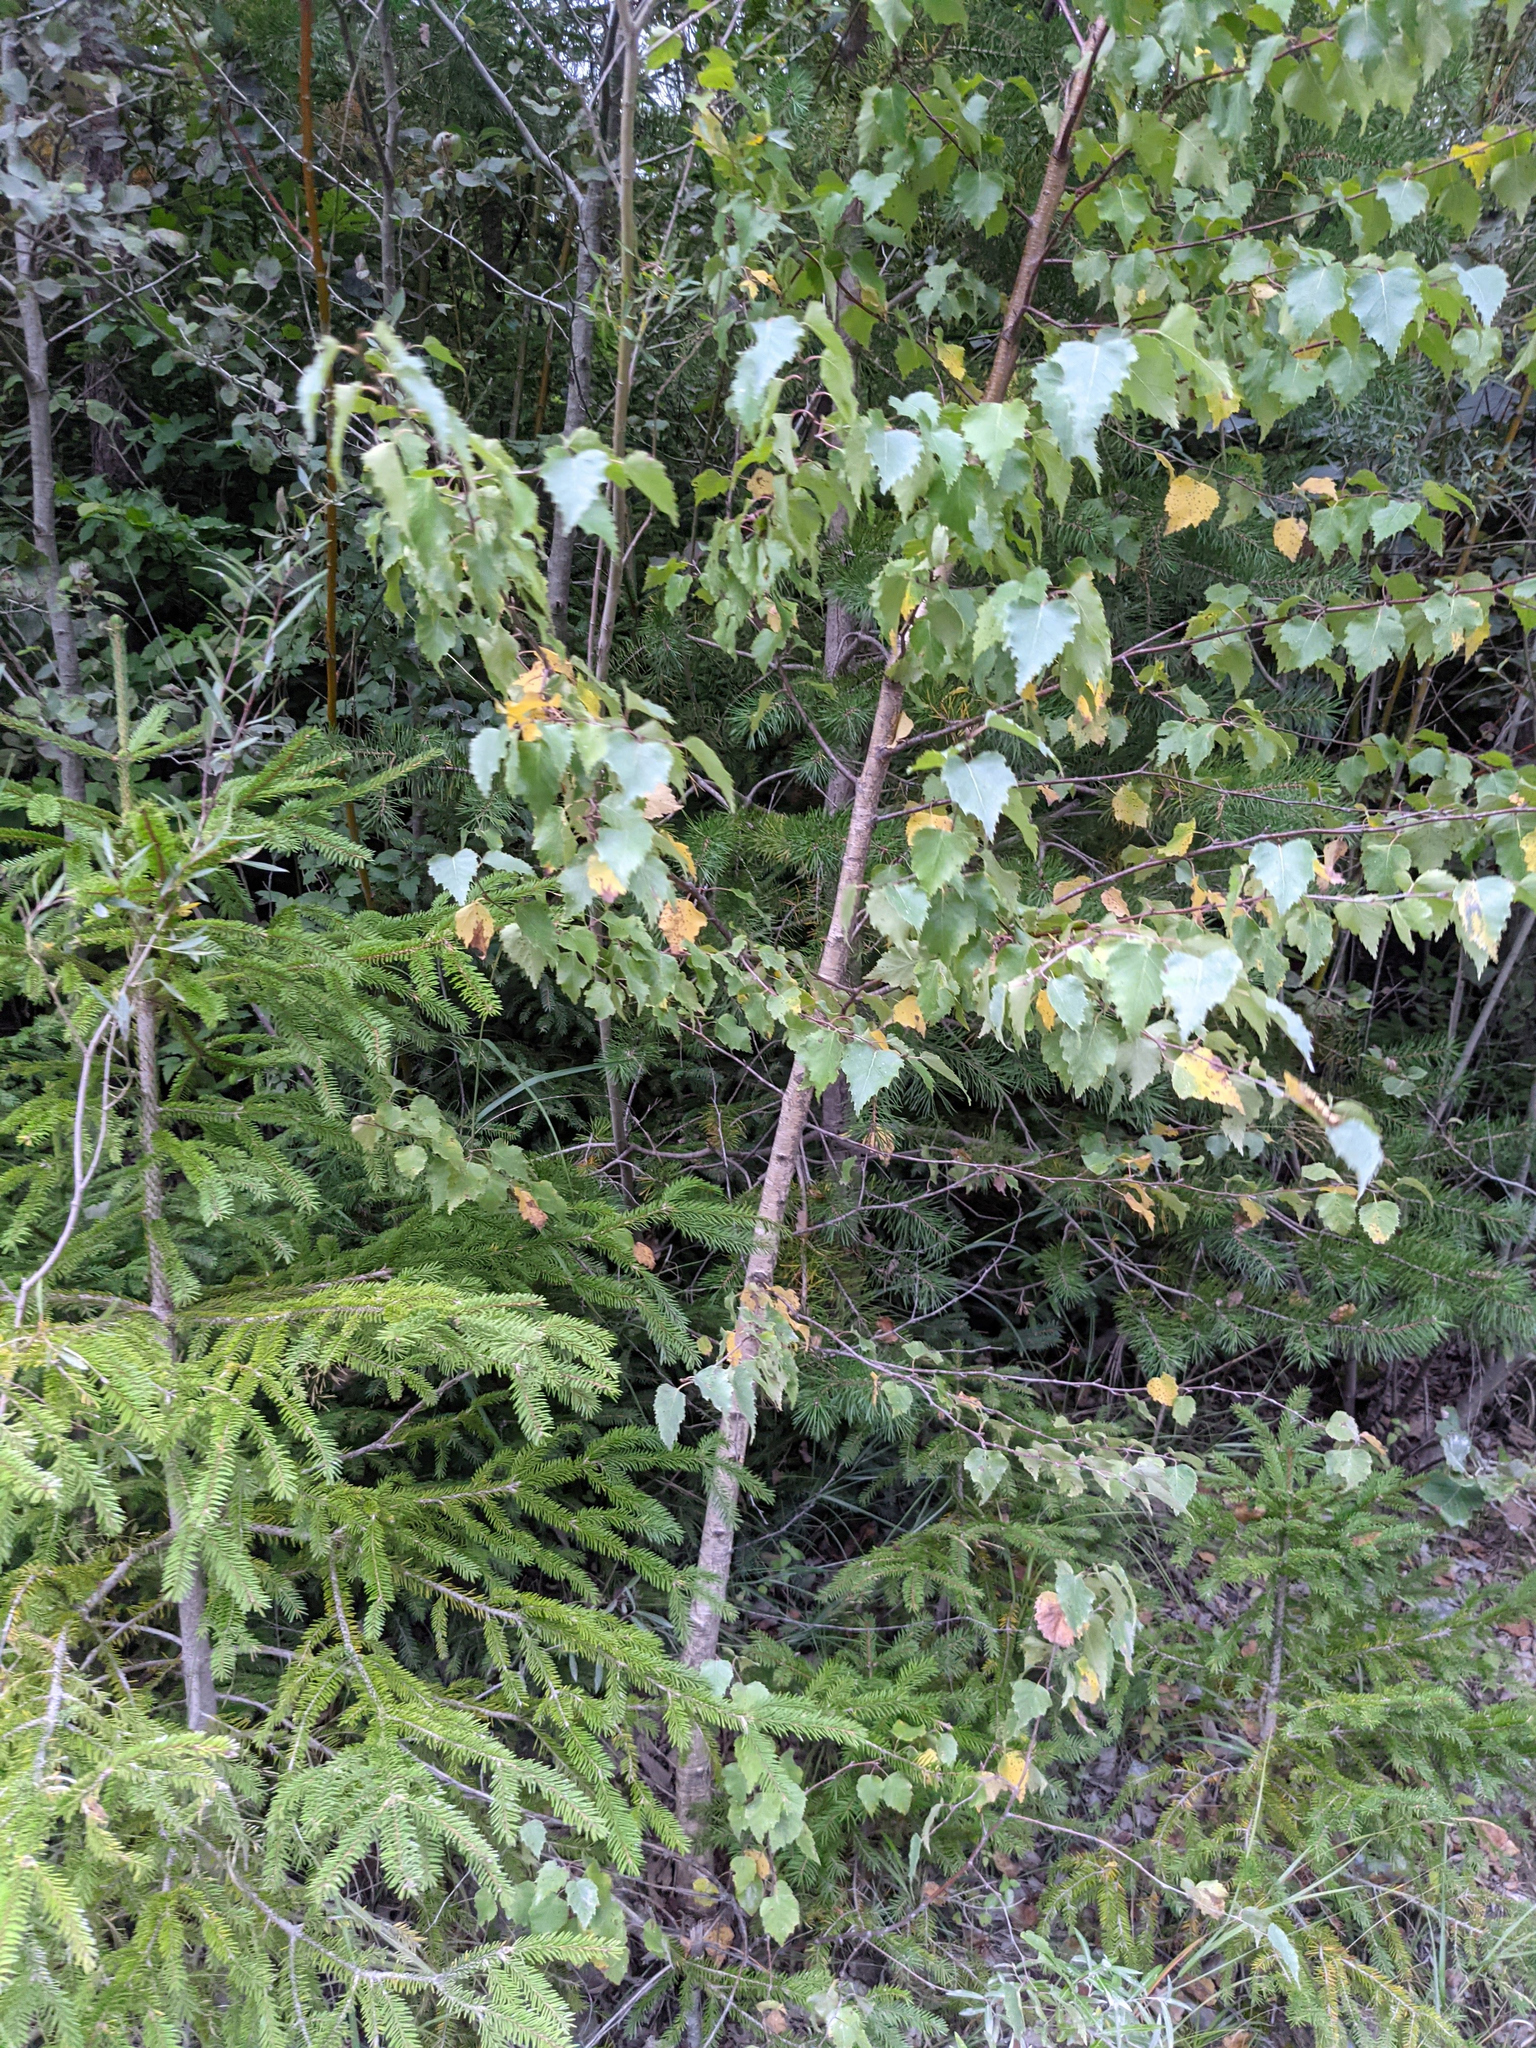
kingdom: Plantae
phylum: Tracheophyta
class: Magnoliopsida
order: Fagales
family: Betulaceae
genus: Betula
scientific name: Betula pendula
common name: Silver birch
